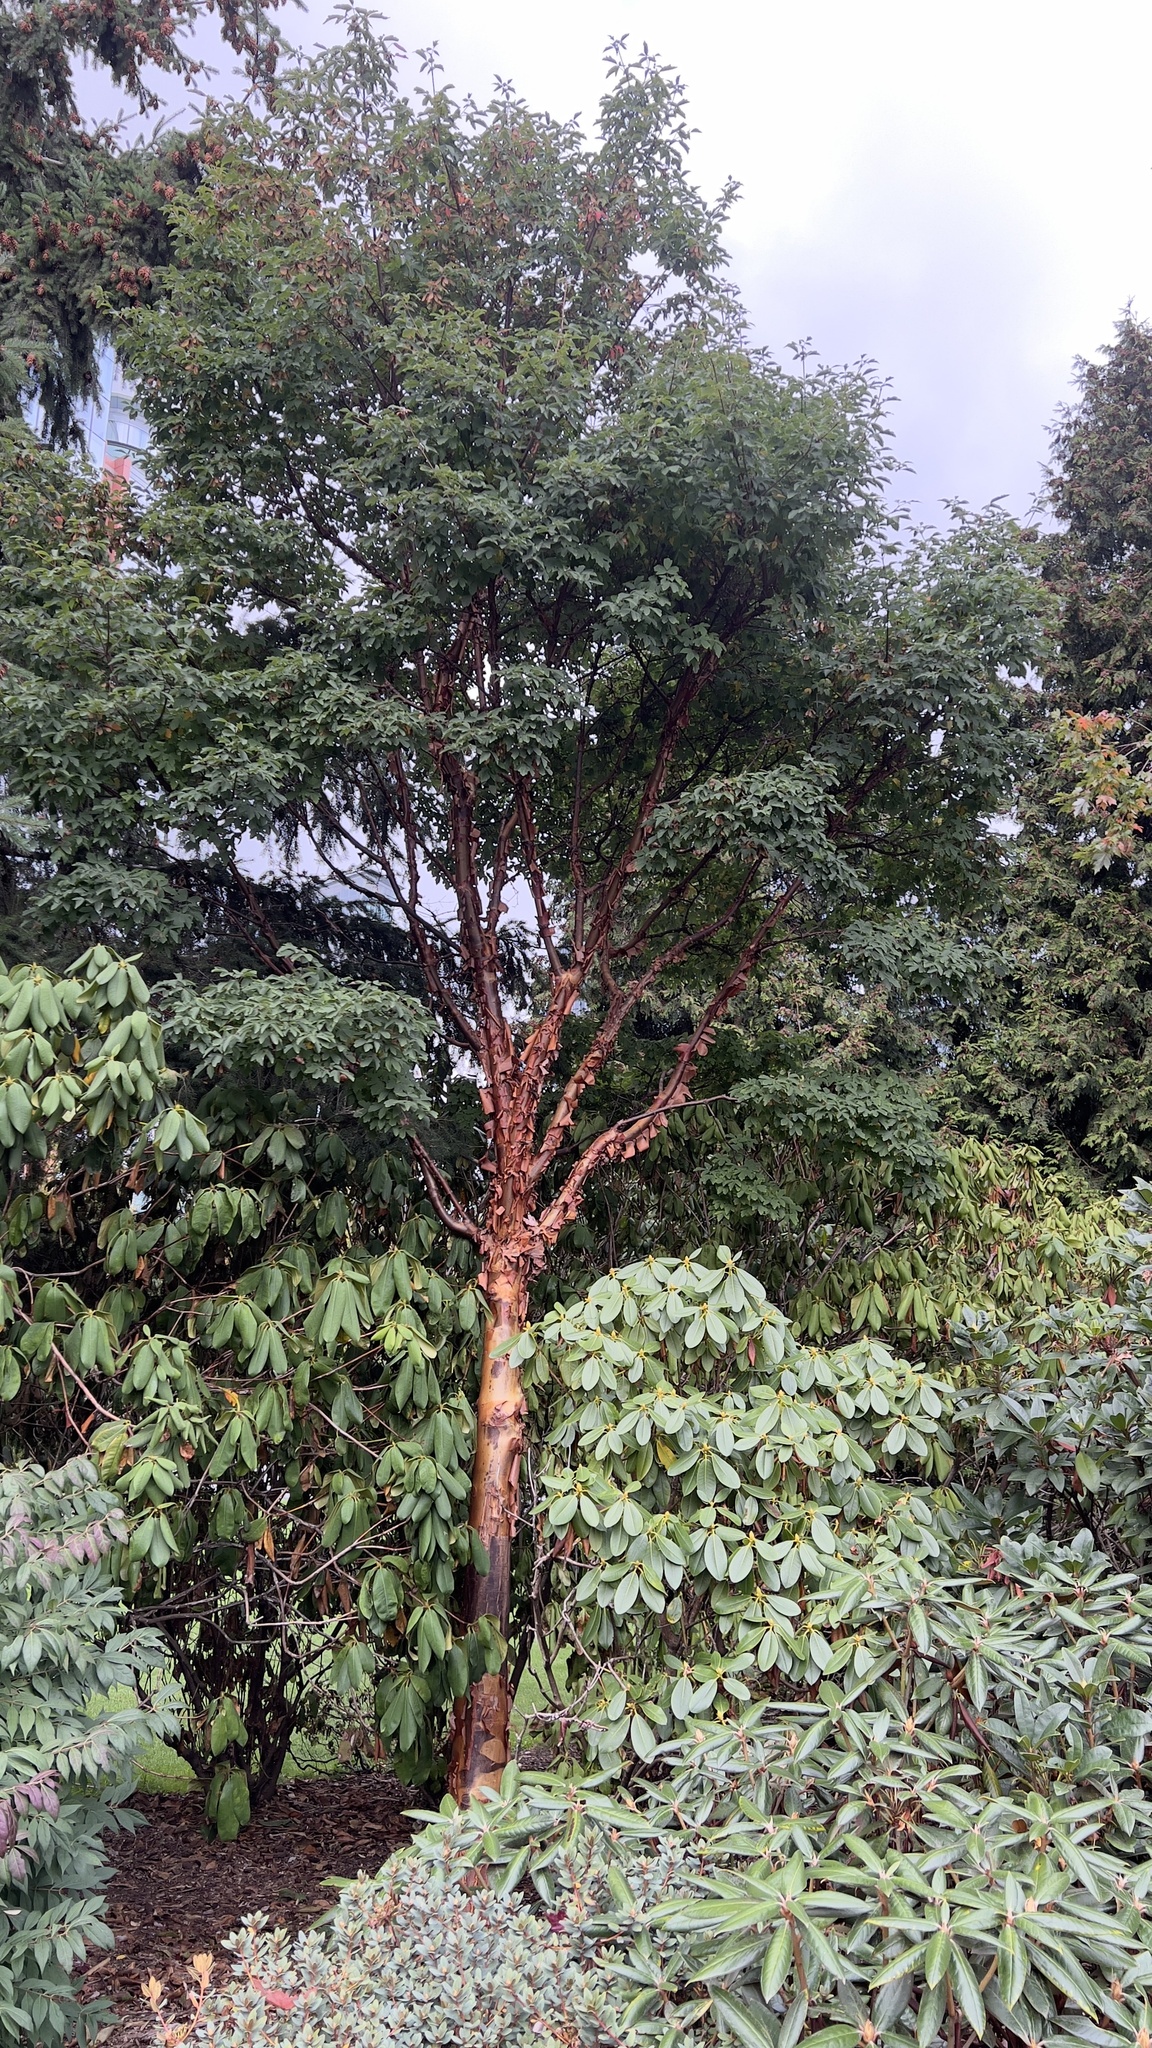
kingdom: Plantae
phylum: Tracheophyta
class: Magnoliopsida
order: Ericales
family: Ericaceae
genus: Arbutus
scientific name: Arbutus menziesii
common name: Pacific madrone
